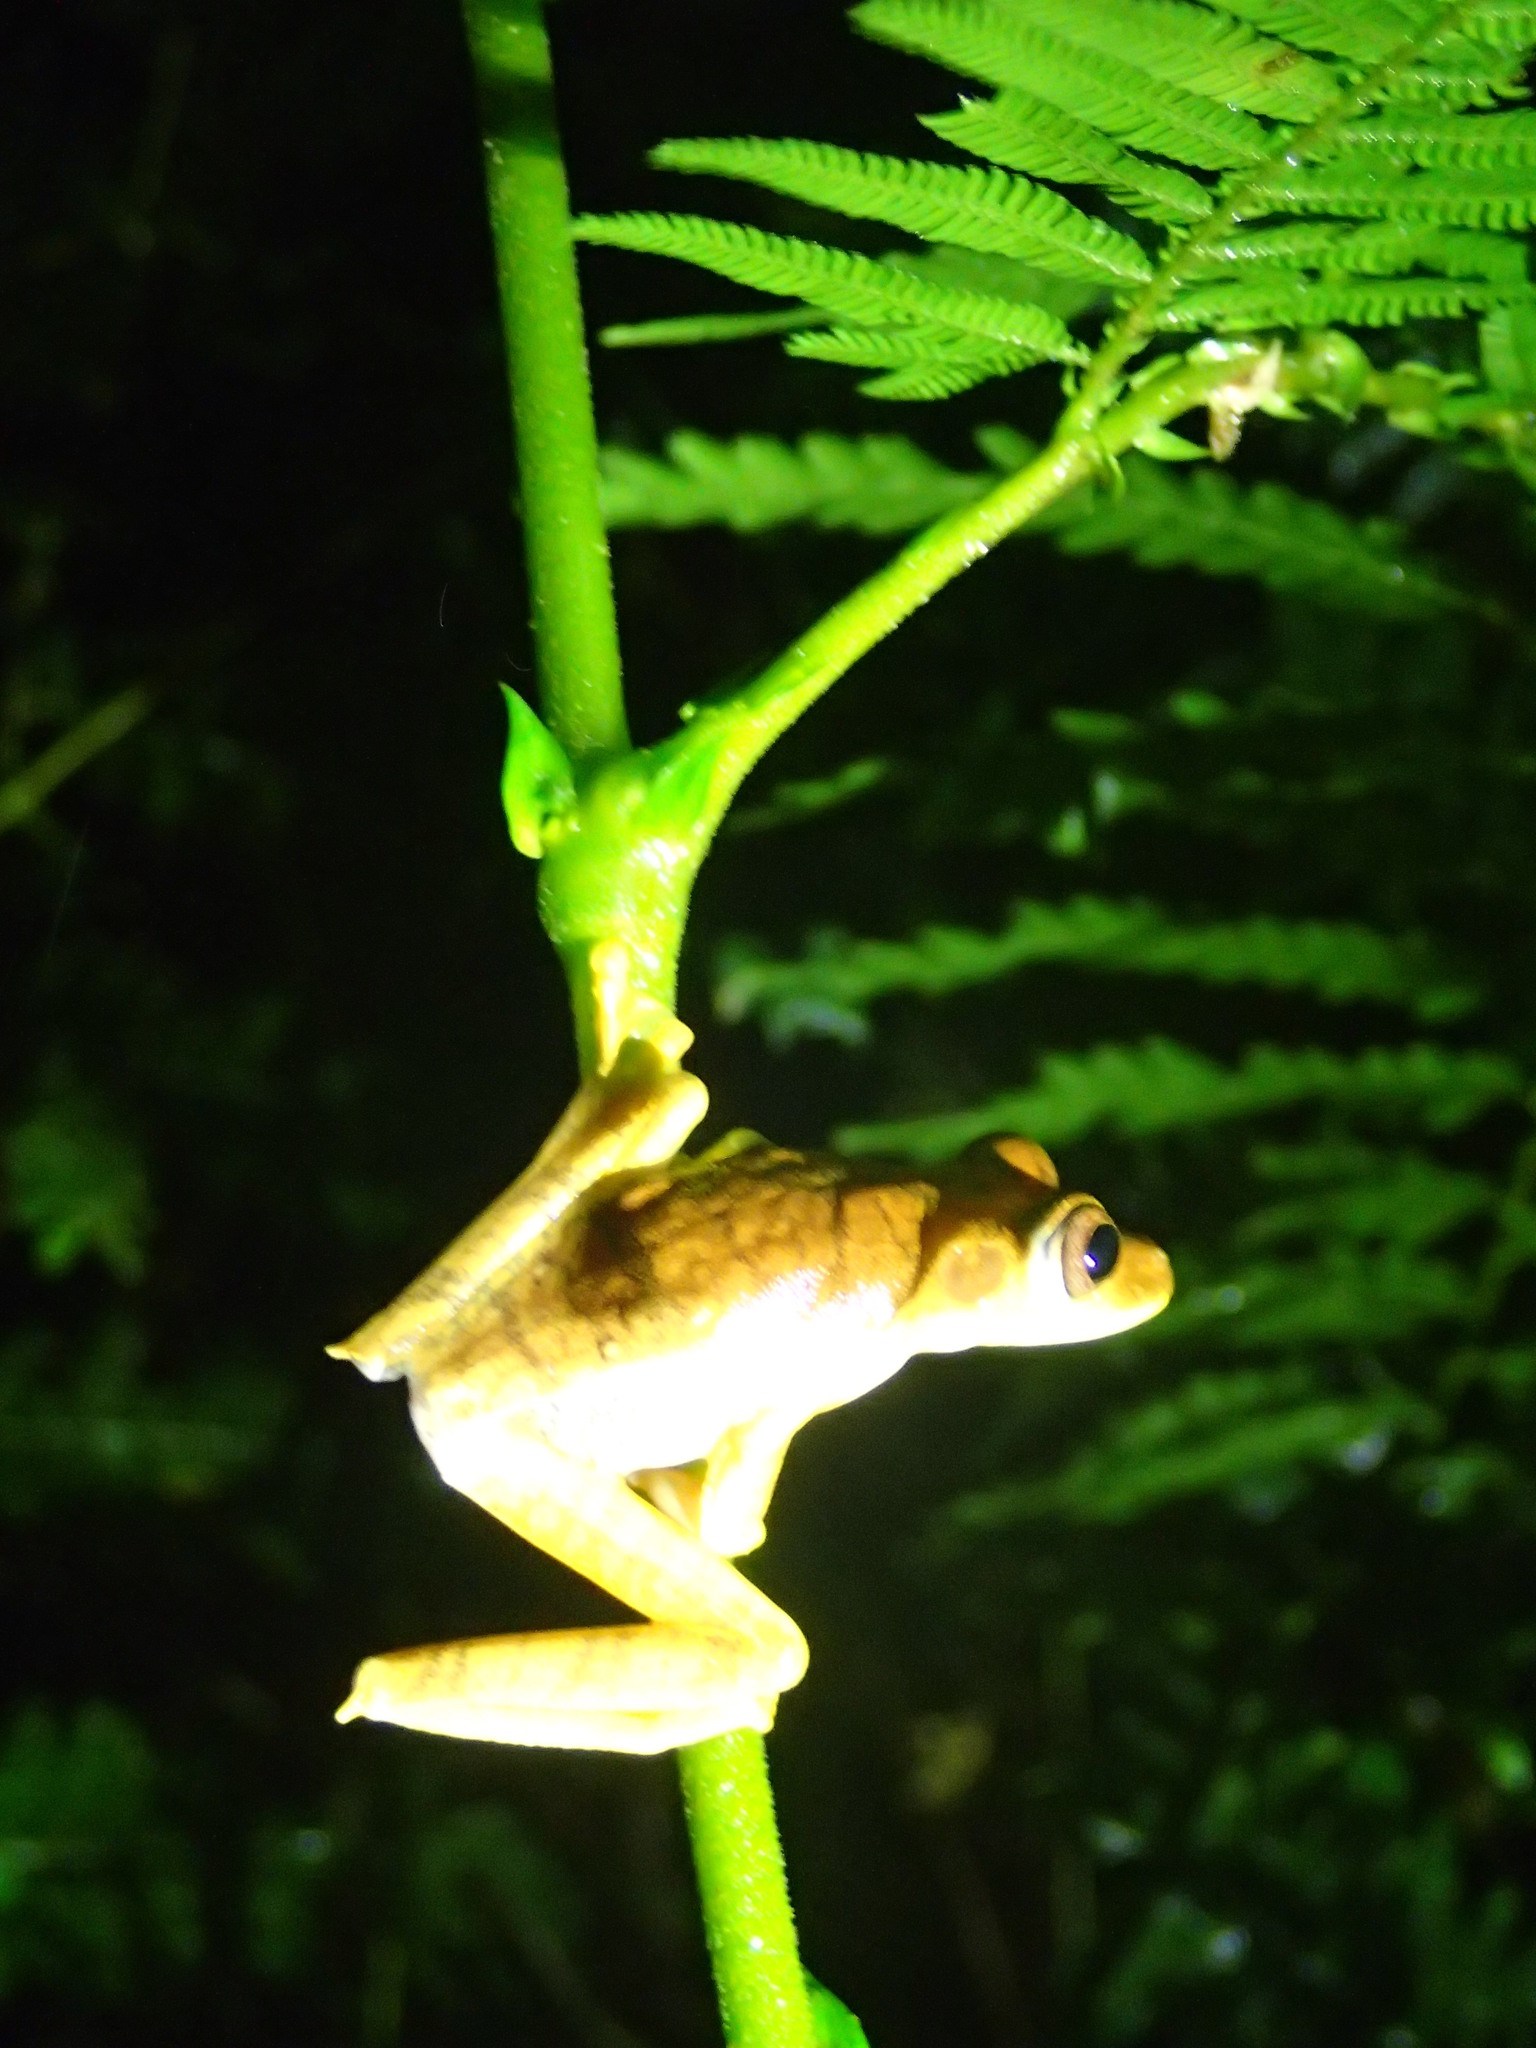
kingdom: Animalia
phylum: Chordata
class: Amphibia
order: Anura
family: Hylidae
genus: Boana
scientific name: Boana calcarata
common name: Blue-flanked treefrog
